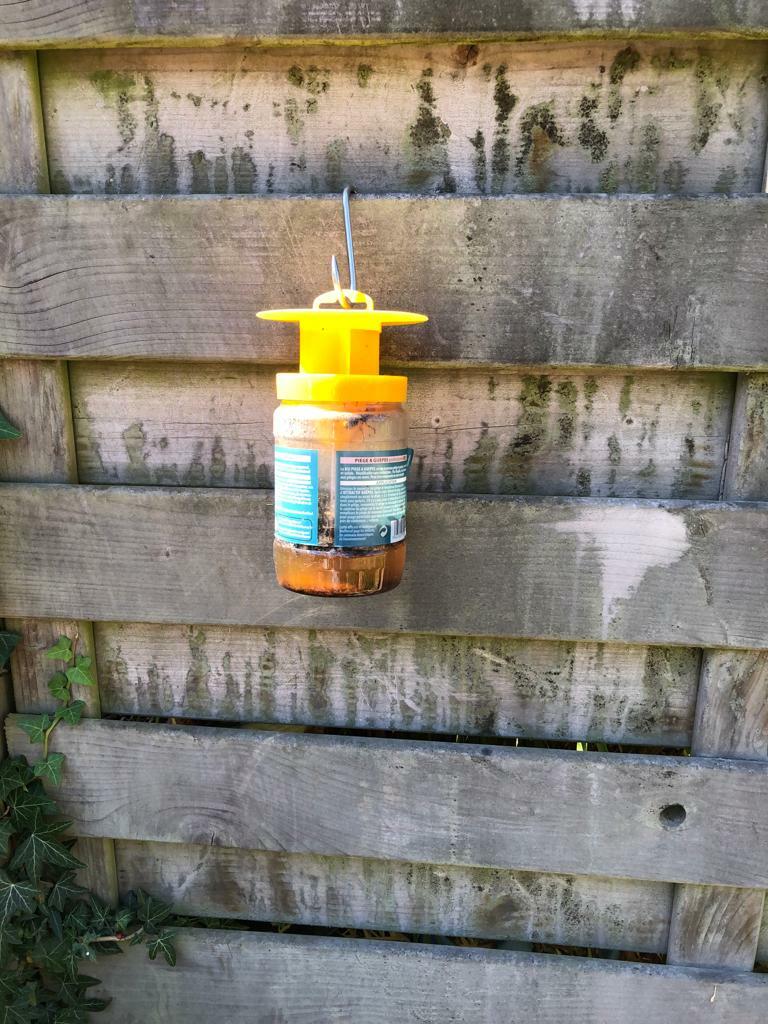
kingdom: Animalia
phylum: Arthropoda
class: Insecta
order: Hymenoptera
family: Vespidae
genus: Vespa
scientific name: Vespa crabro
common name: Hornet
